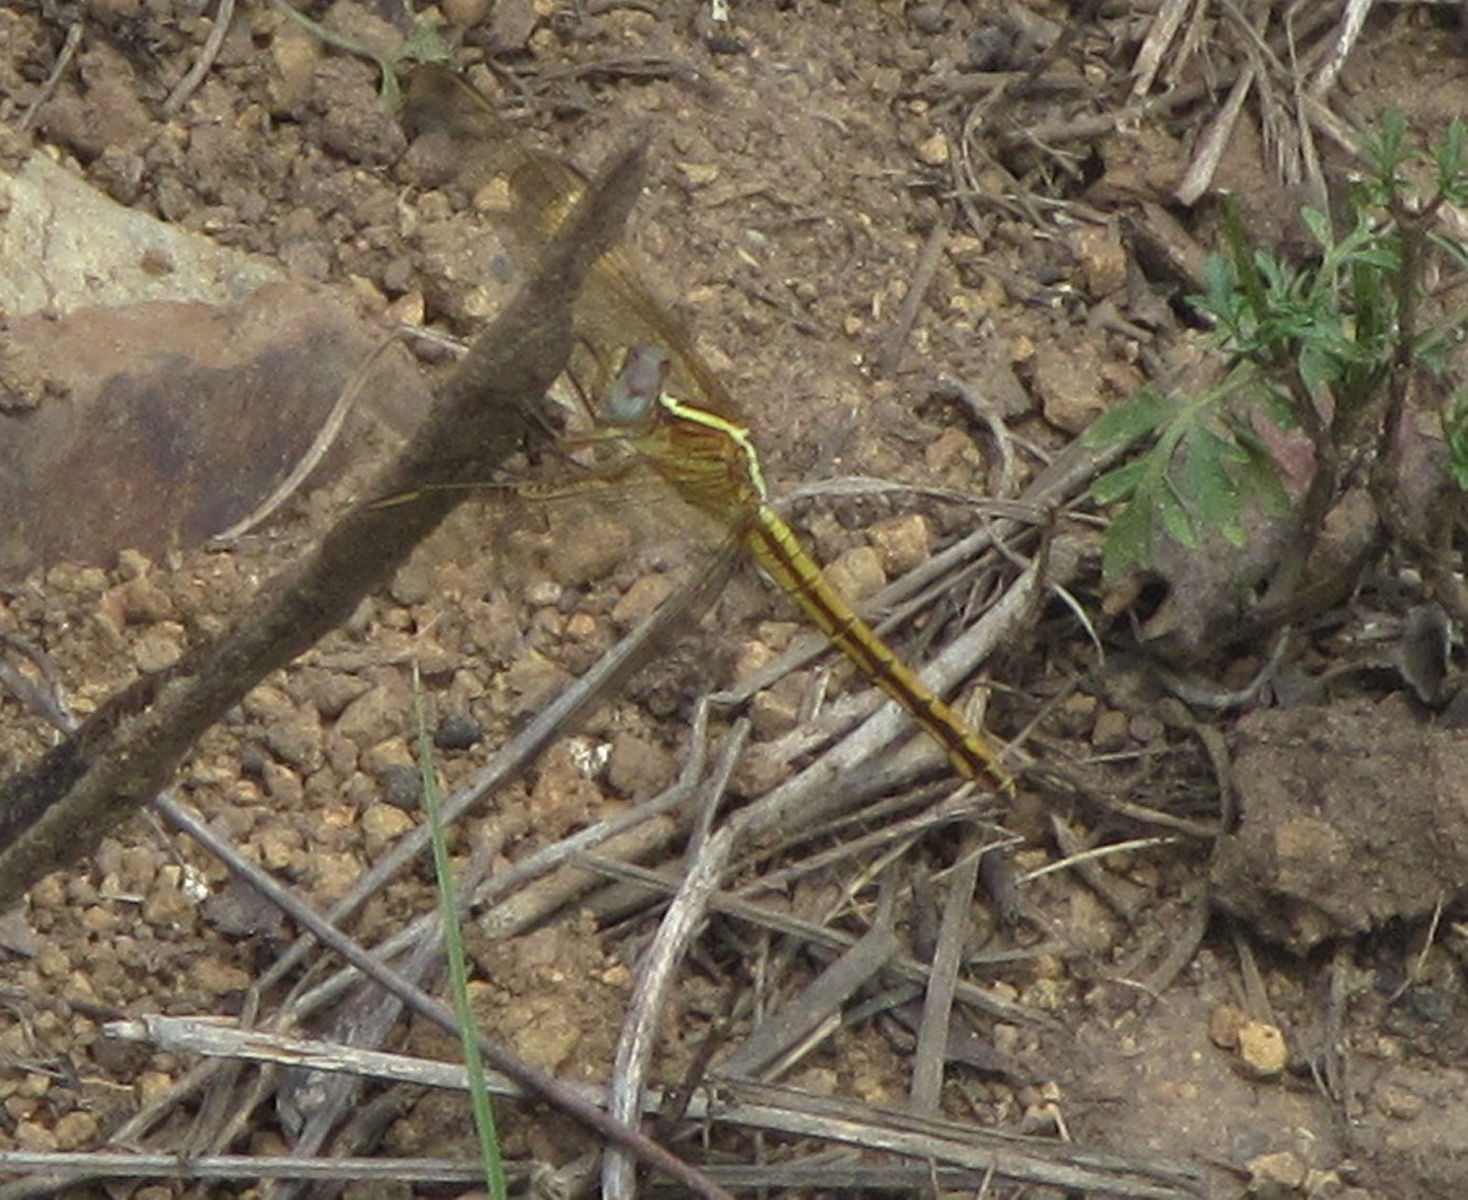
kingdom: Animalia
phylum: Arthropoda
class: Insecta
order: Odonata
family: Libellulidae
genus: Nesciothemis
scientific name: Nesciothemis farinosa
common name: Eastern blacktail
